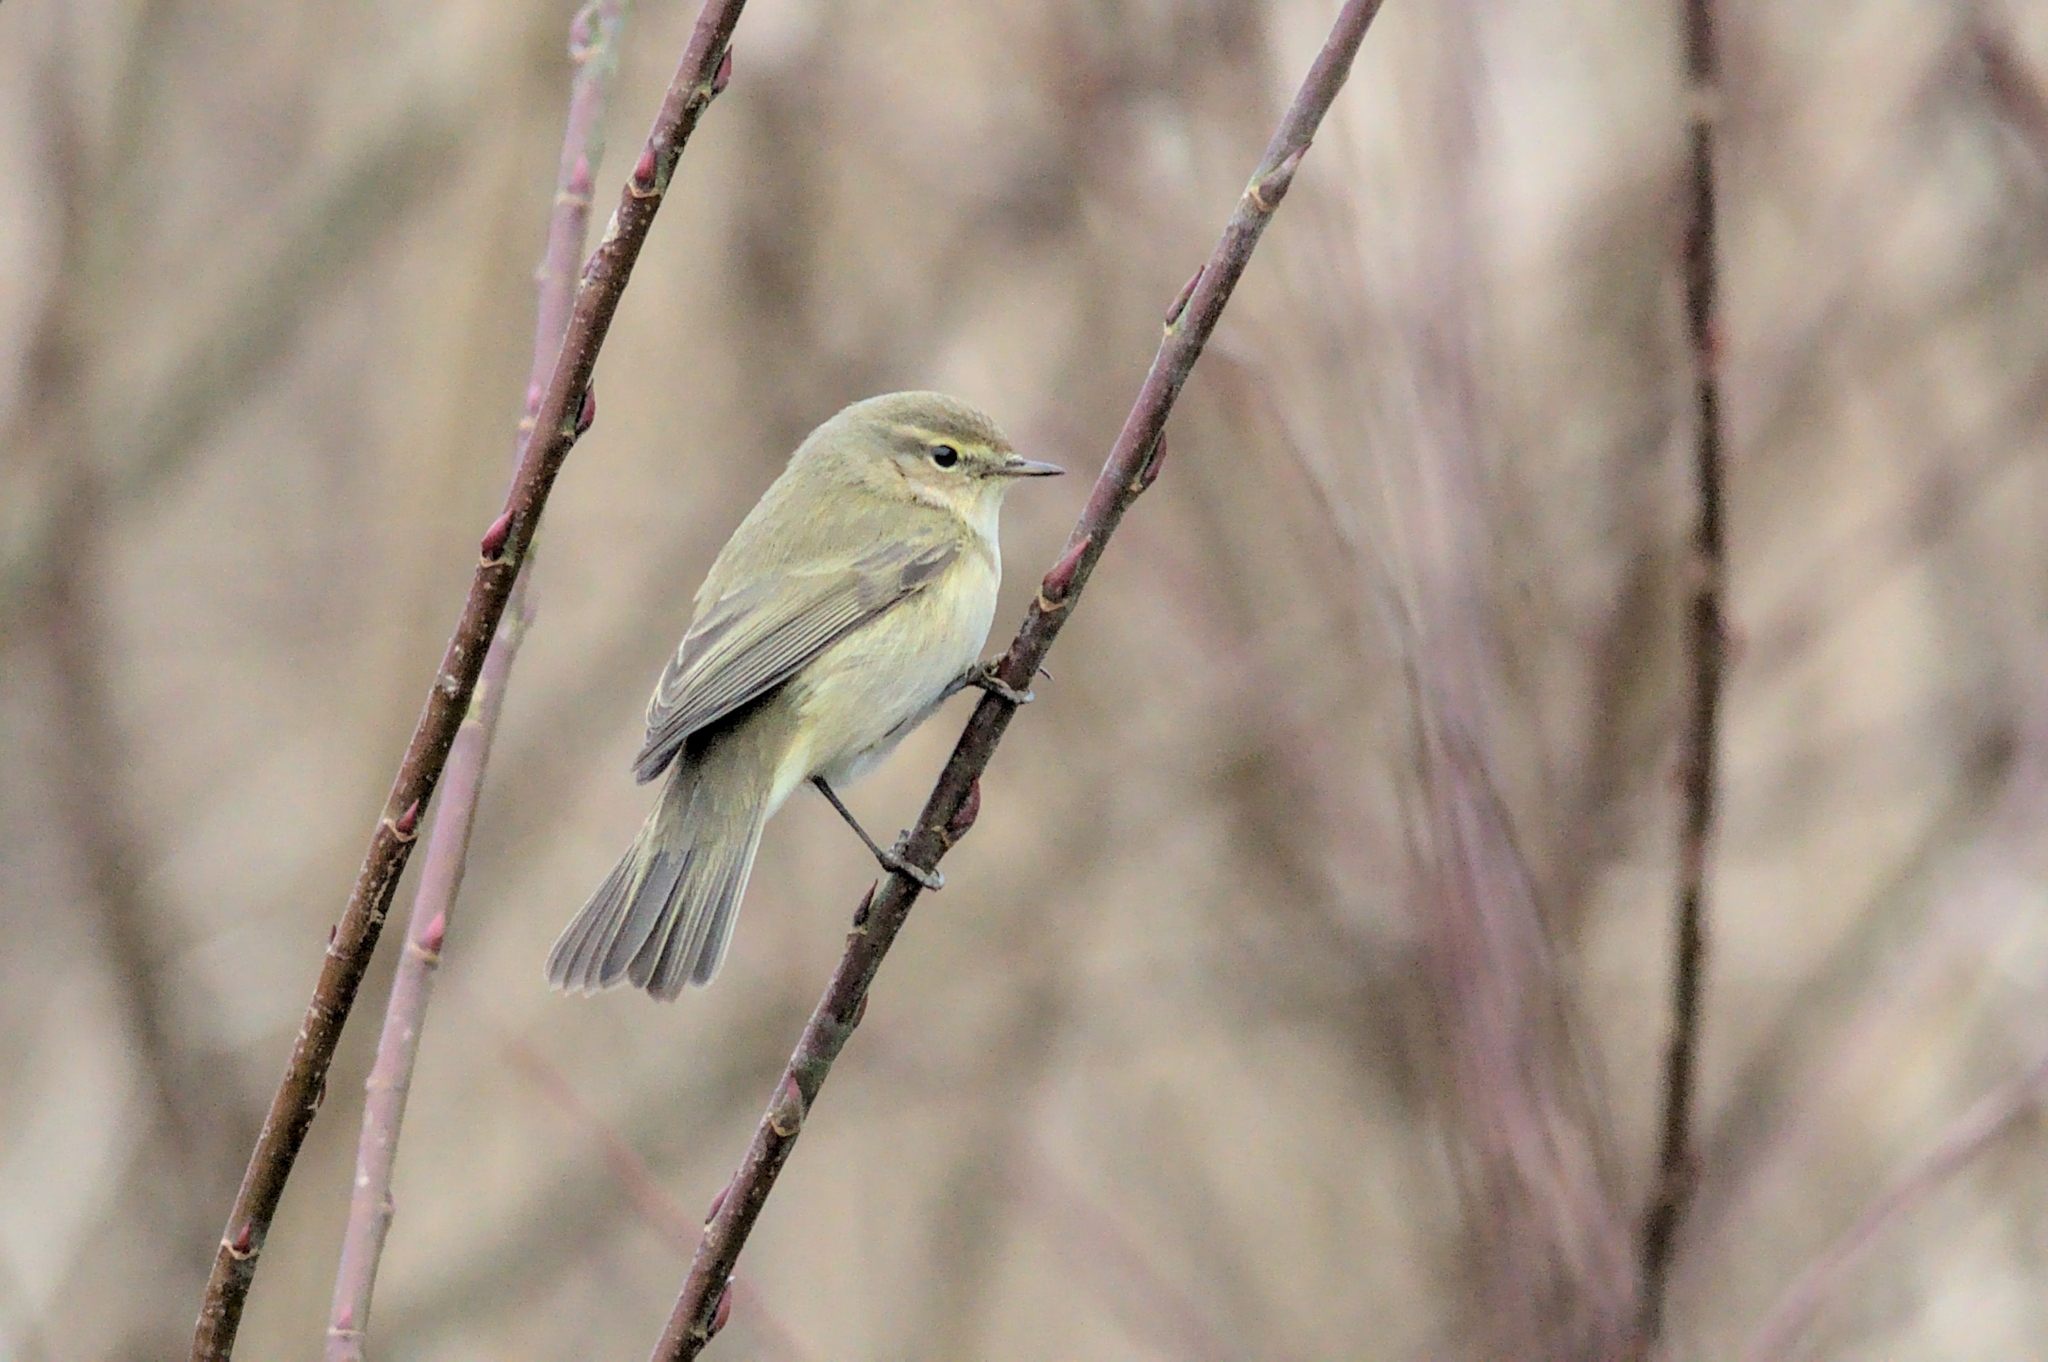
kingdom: Animalia
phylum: Chordata
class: Aves
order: Passeriformes
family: Phylloscopidae
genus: Phylloscopus
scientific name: Phylloscopus collybita
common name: Common chiffchaff
